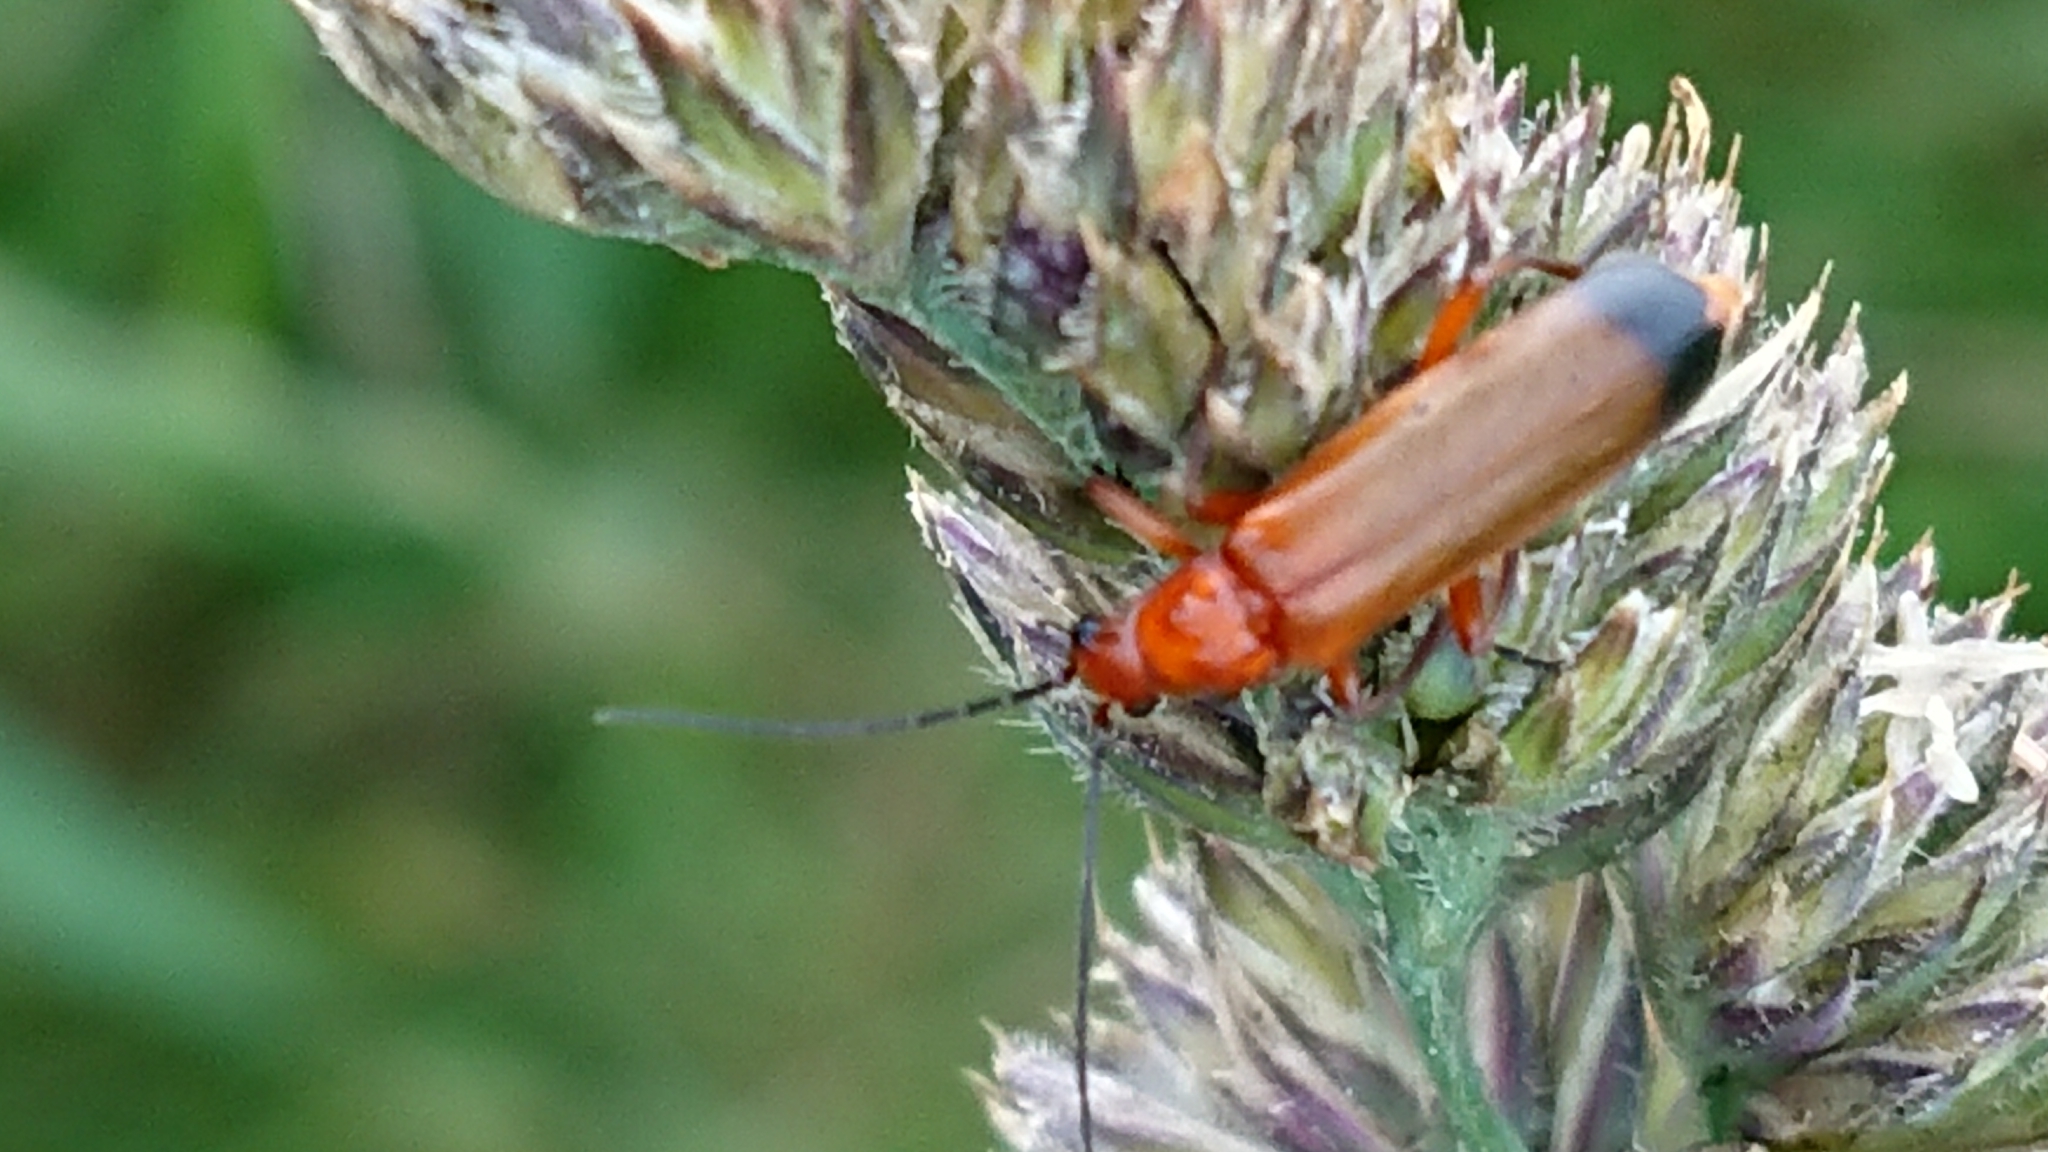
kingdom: Animalia
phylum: Arthropoda
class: Insecta
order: Coleoptera
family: Cantharidae
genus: Rhagonycha
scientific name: Rhagonycha fulva
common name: Common red soldier beetle
